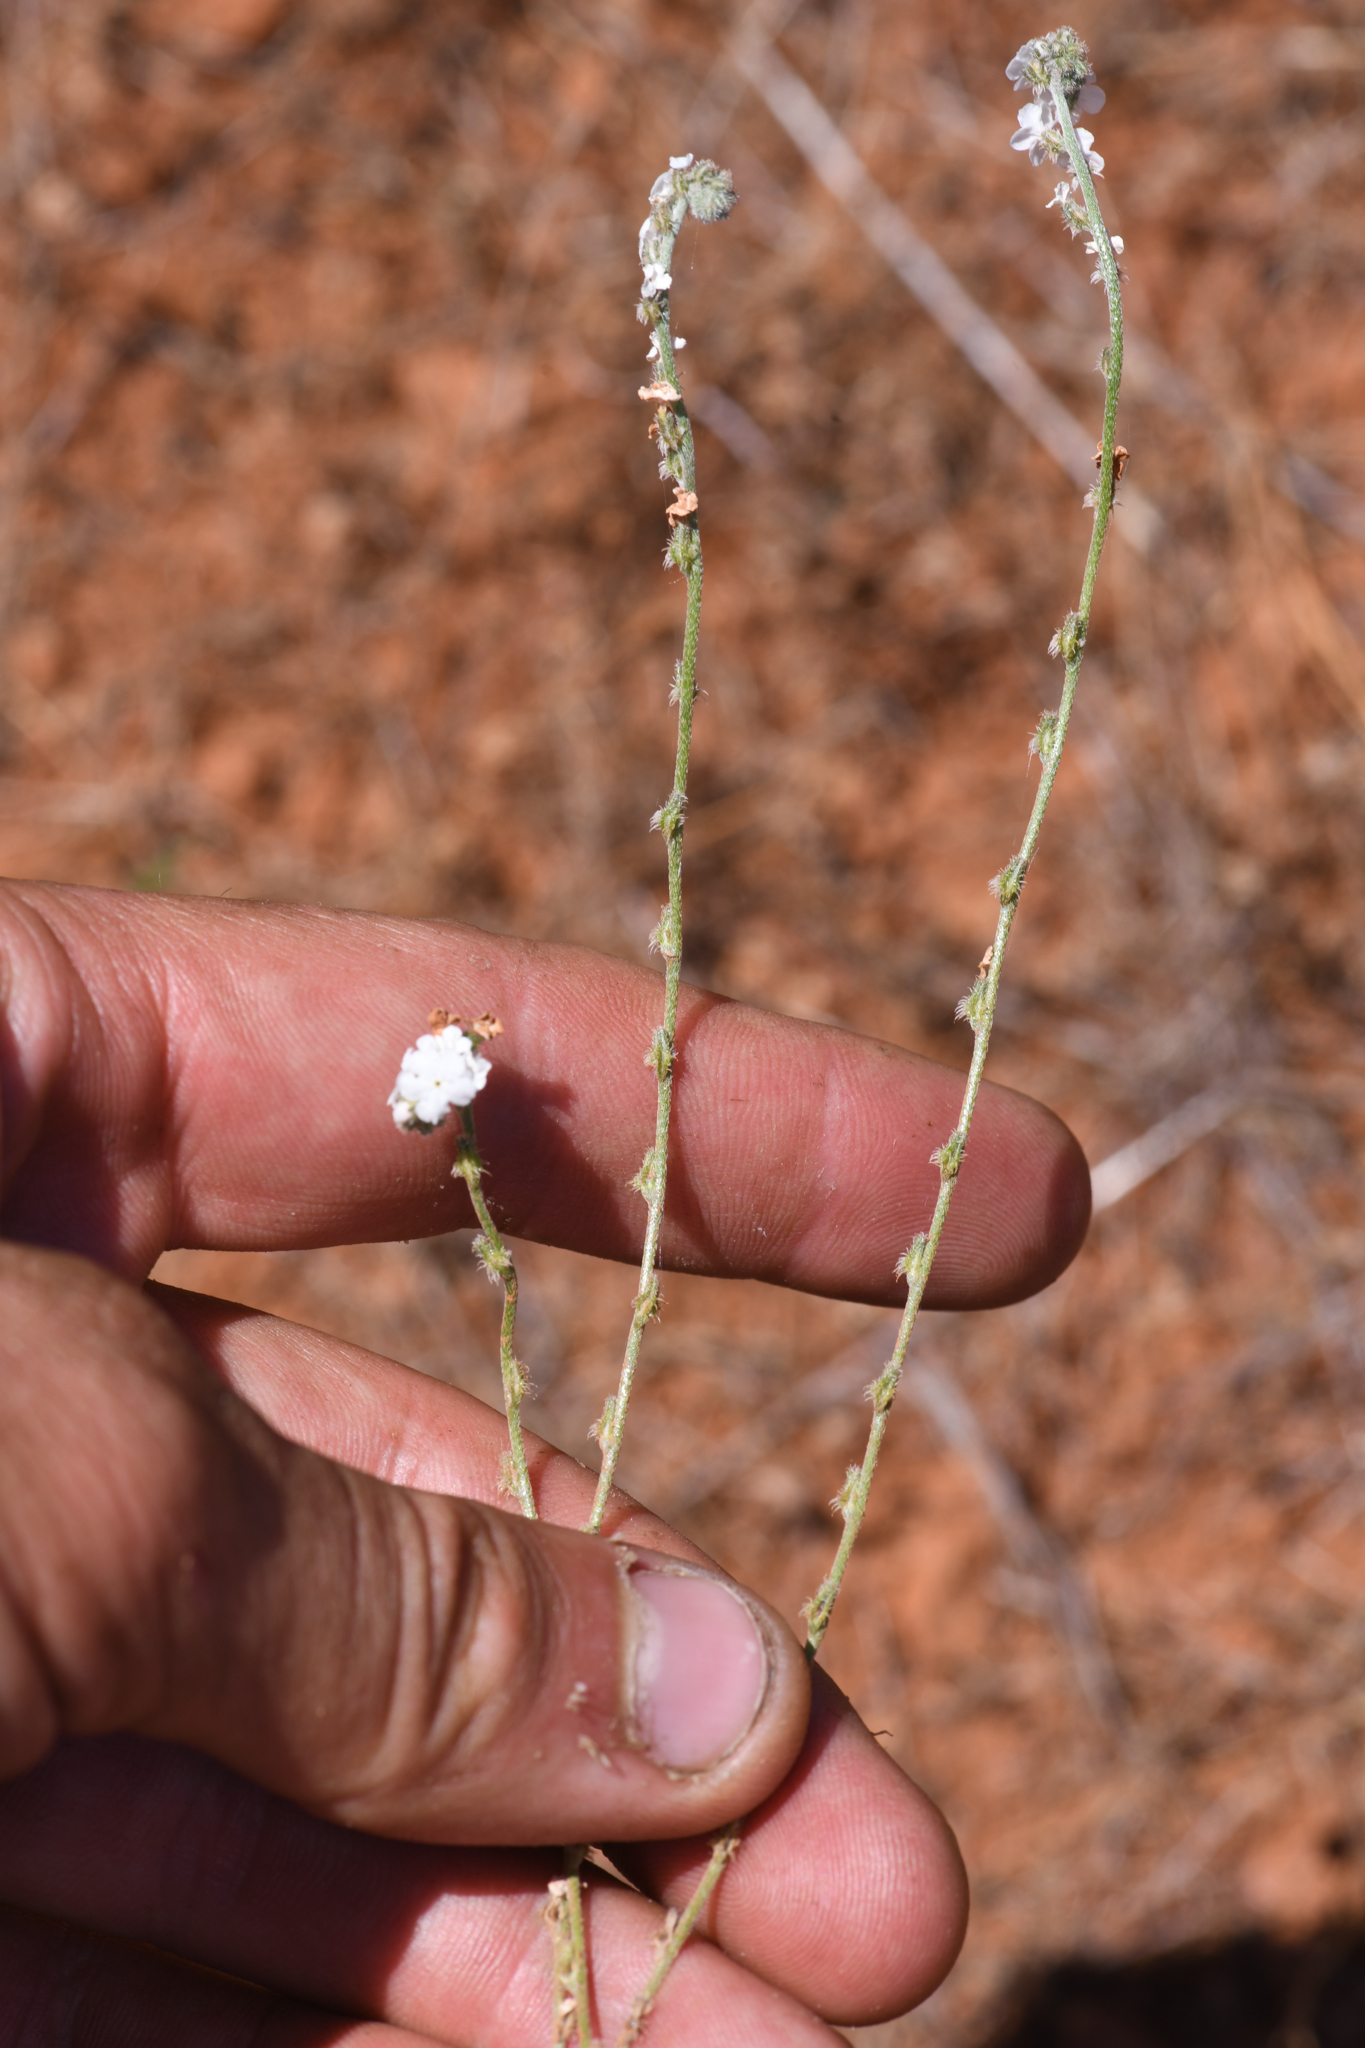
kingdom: Plantae
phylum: Tracheophyta
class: Magnoliopsida
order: Boraginales
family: Boraginaceae
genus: Cryptantha
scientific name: Cryptantha flaccida
